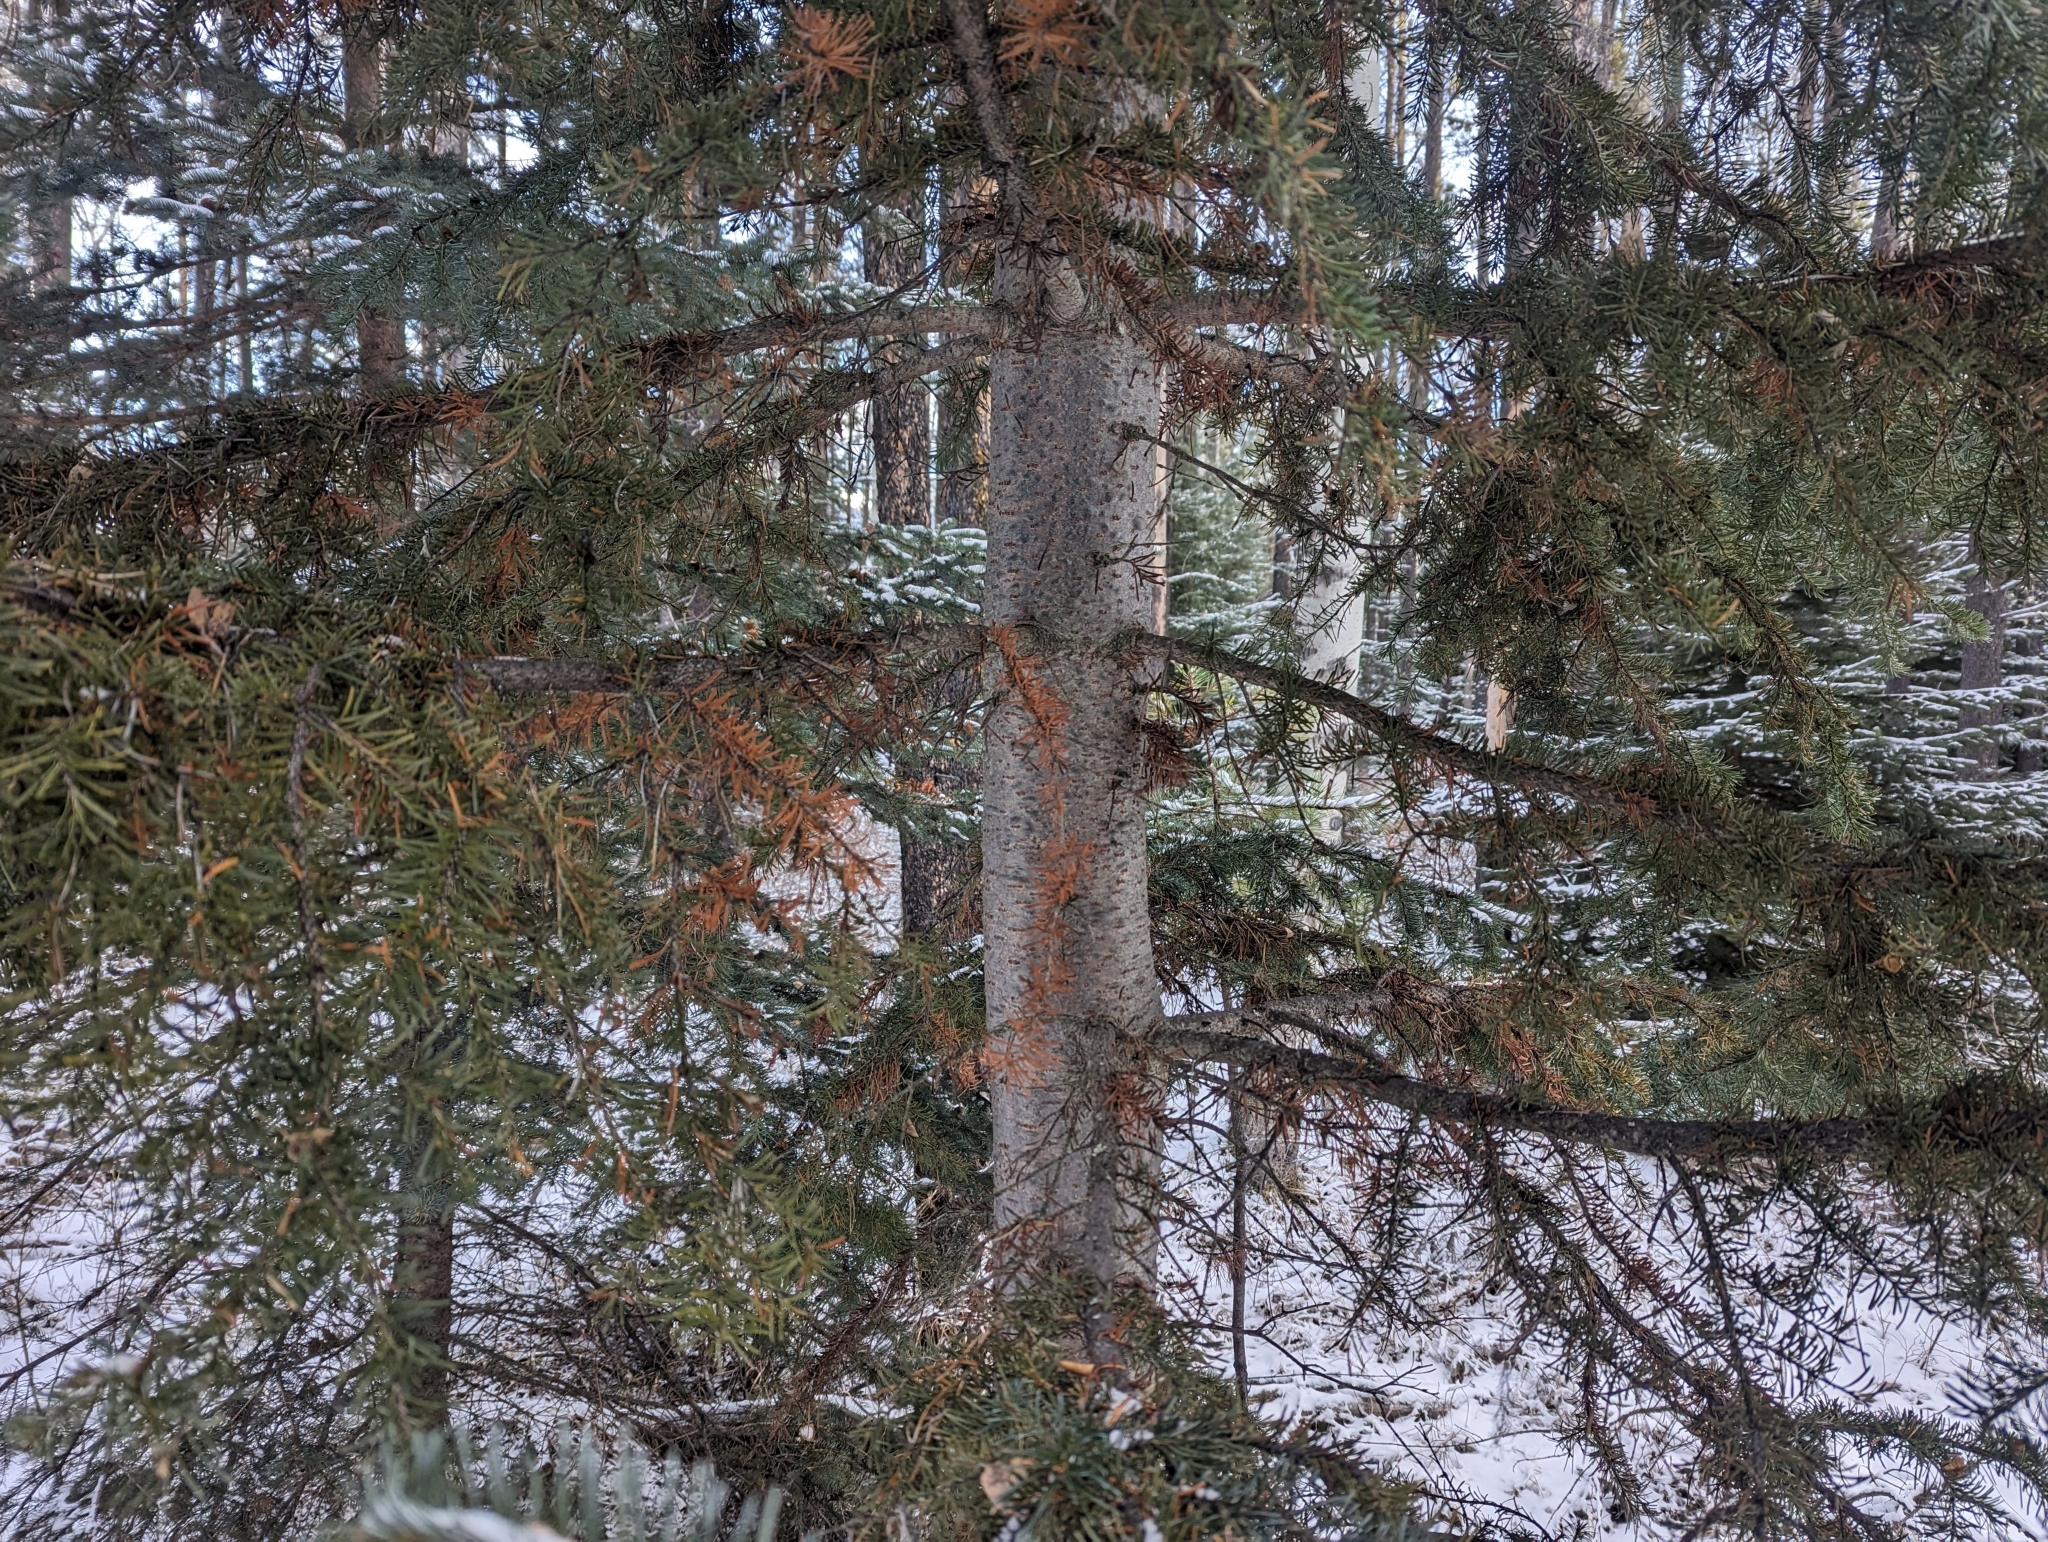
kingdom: Plantae
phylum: Tracheophyta
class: Pinopsida
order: Pinales
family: Pinaceae
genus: Abies
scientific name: Abies lasiocarpa
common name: Subalpine fir
